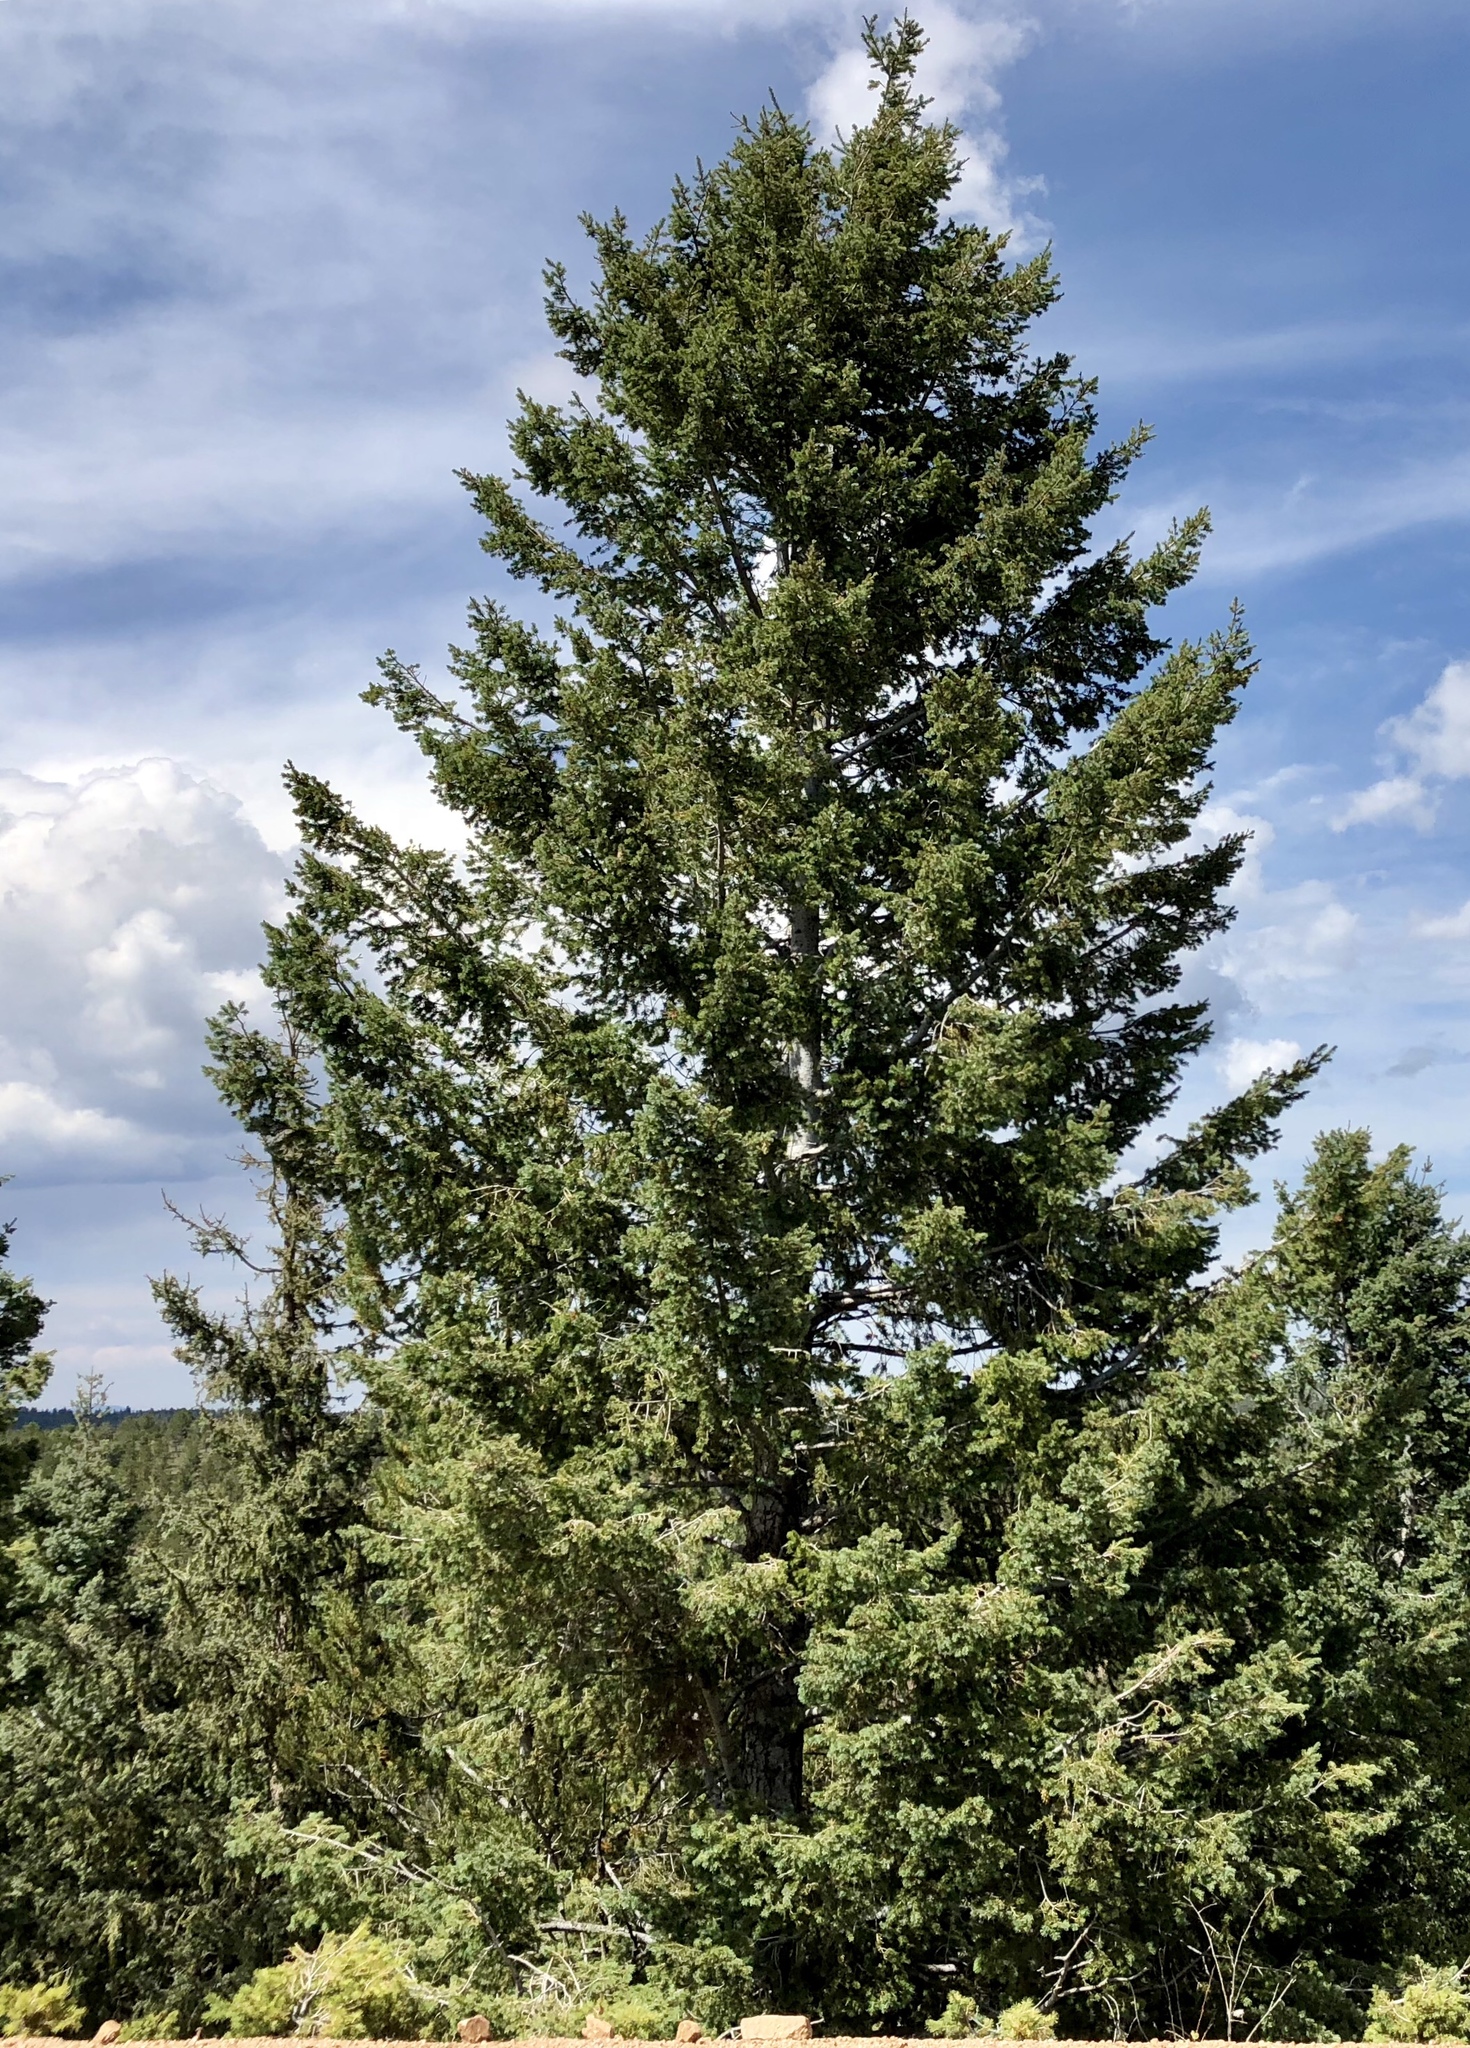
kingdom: Plantae
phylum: Tracheophyta
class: Pinopsida
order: Pinales
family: Pinaceae
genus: Pseudotsuga
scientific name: Pseudotsuga menziesii
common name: Douglas fir
